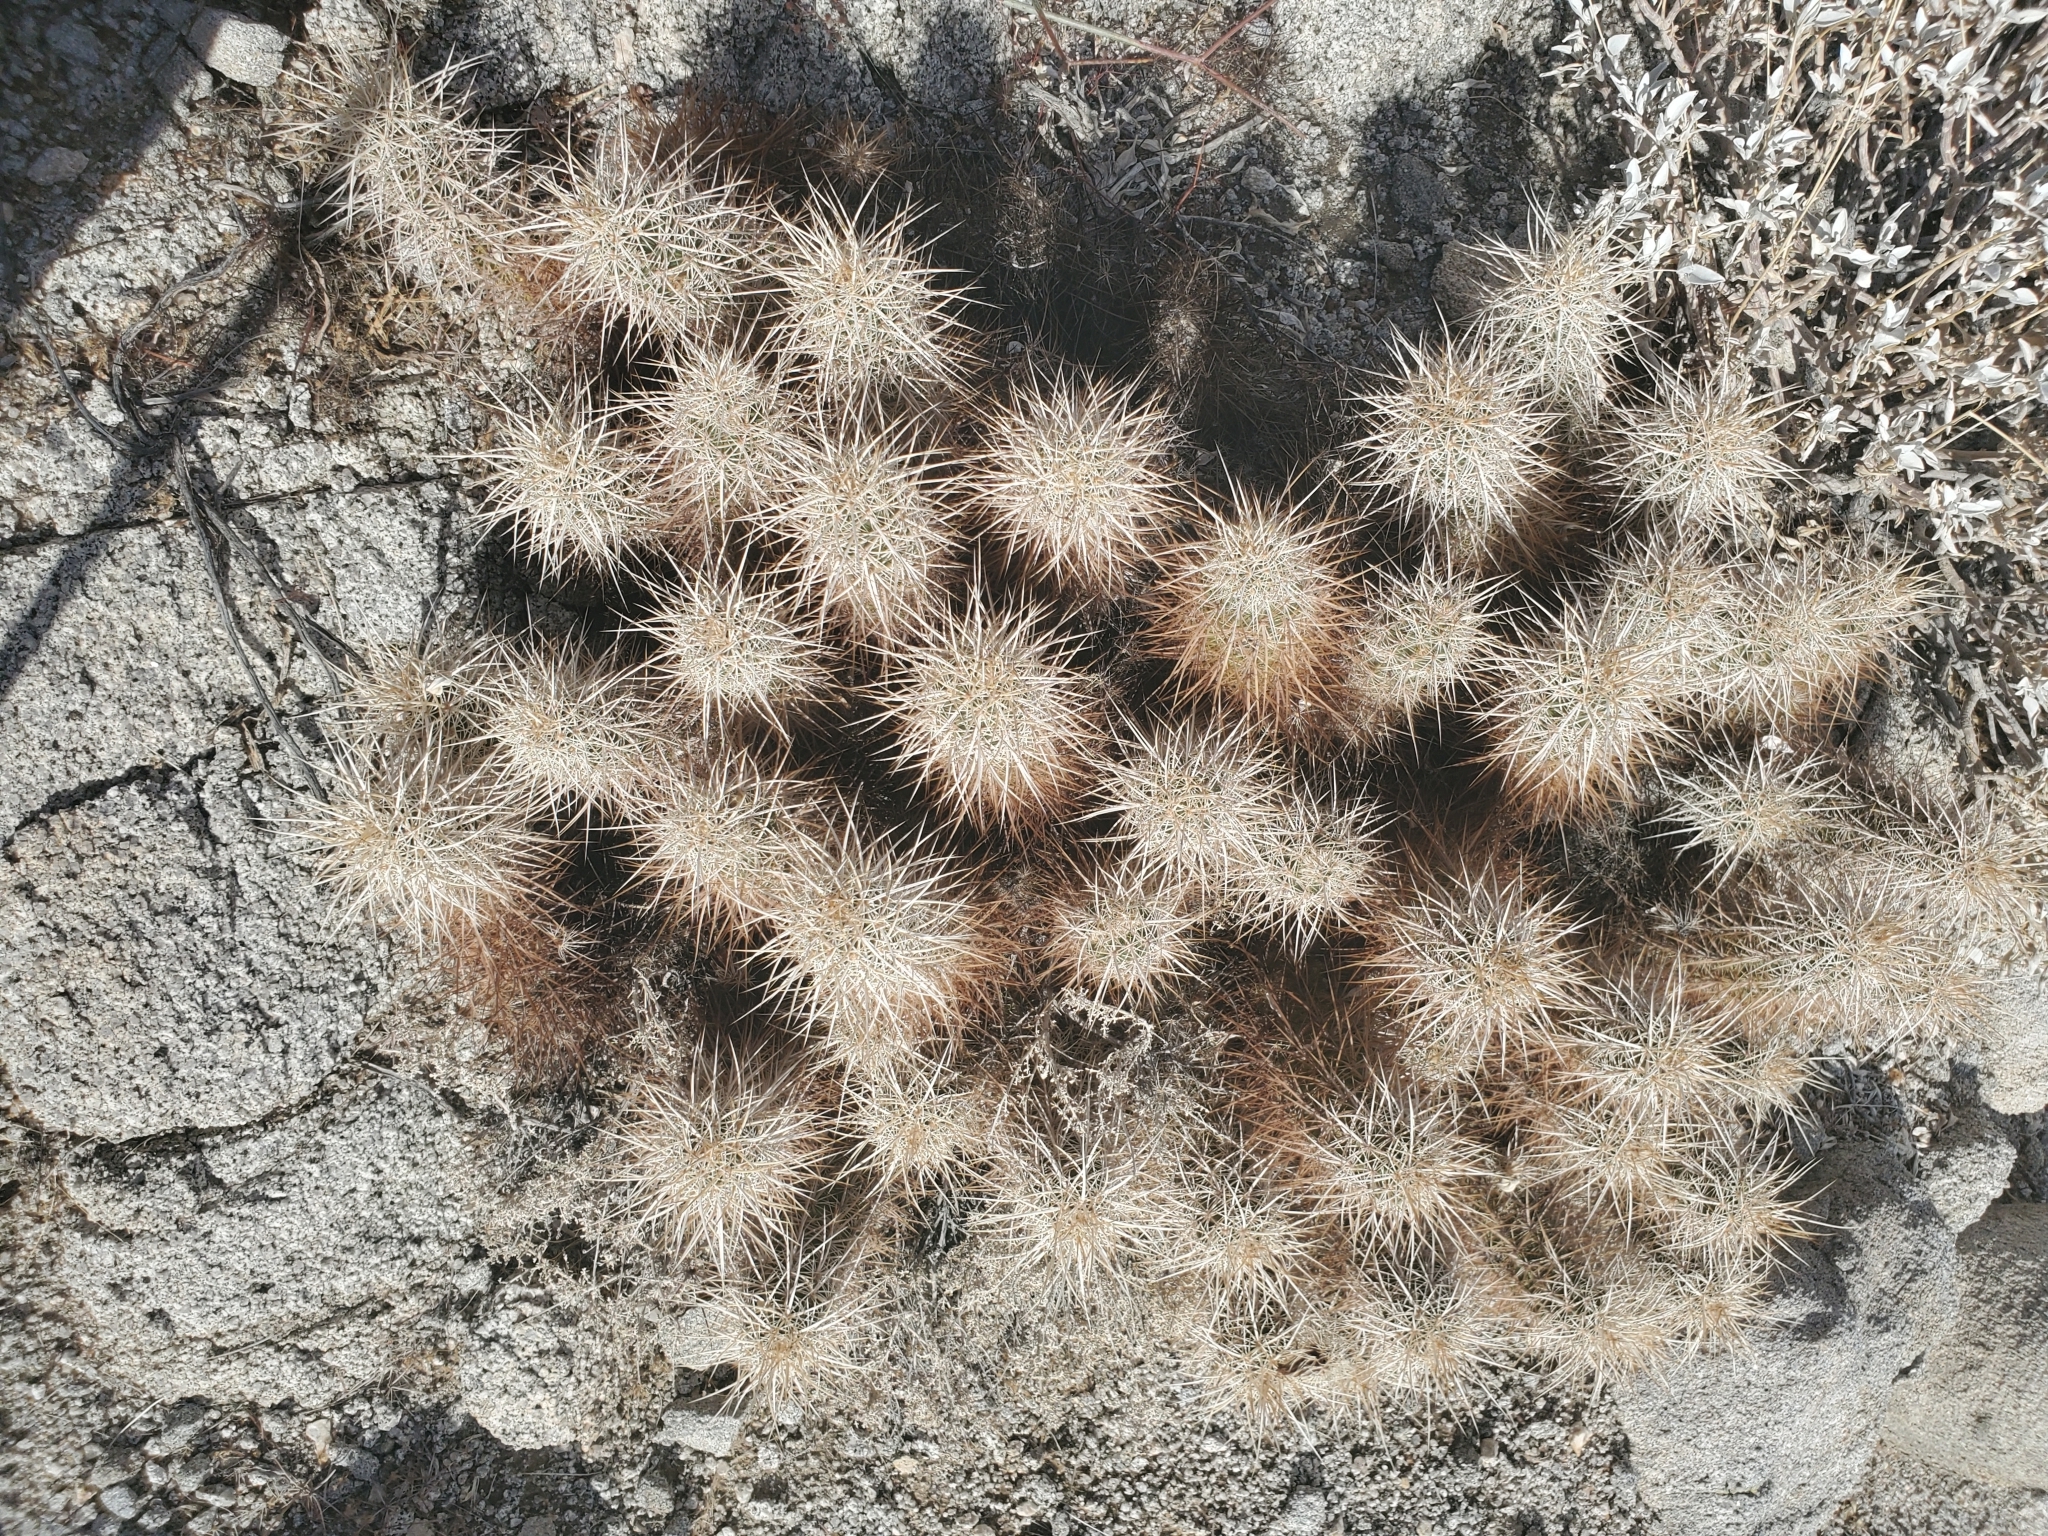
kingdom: Plantae
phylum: Tracheophyta
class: Magnoliopsida
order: Caryophyllales
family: Cactaceae
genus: Echinocereus
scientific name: Echinocereus engelmannii
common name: Engelmann's hedgehog cactus
